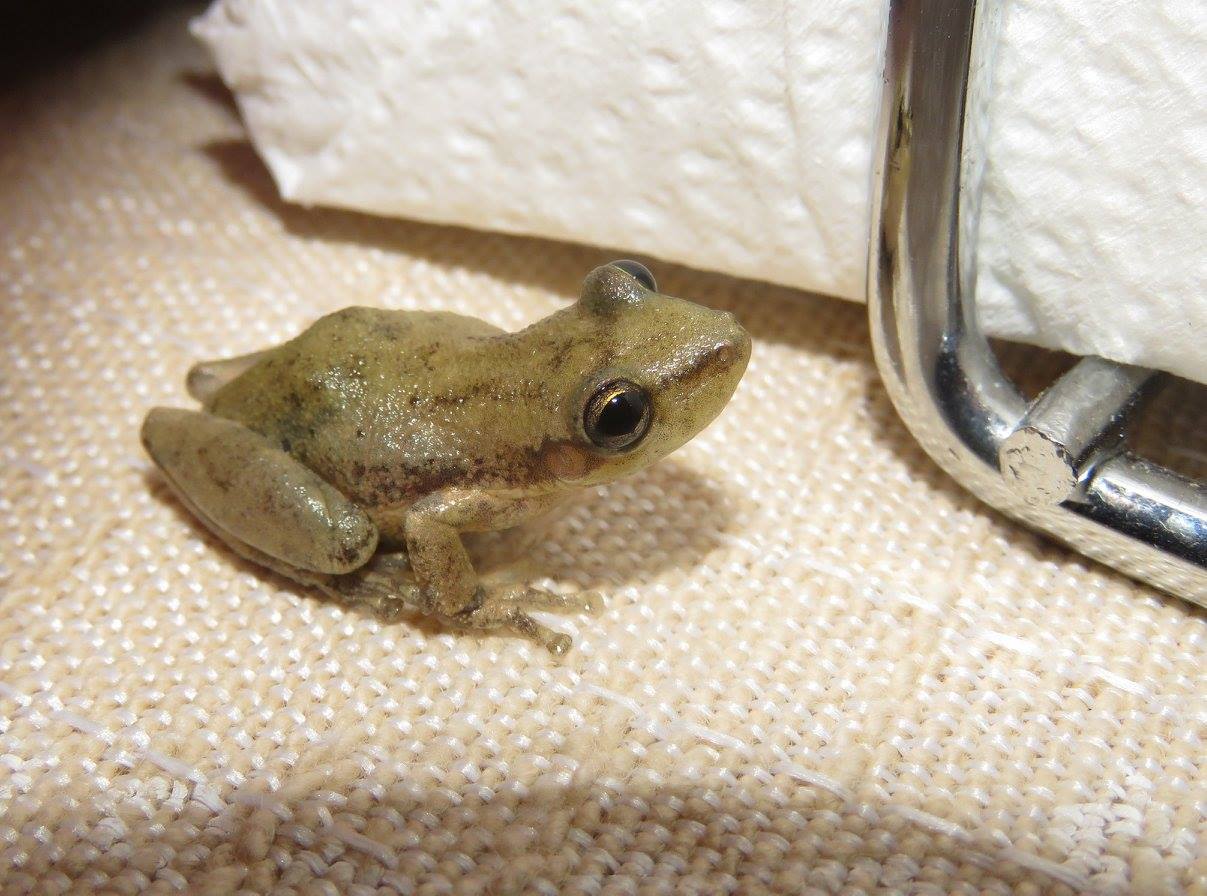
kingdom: Animalia
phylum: Chordata
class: Amphibia
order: Anura
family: Hylidae
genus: Scinax
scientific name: Scinax nasicus
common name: Lesser snouted treefrog
